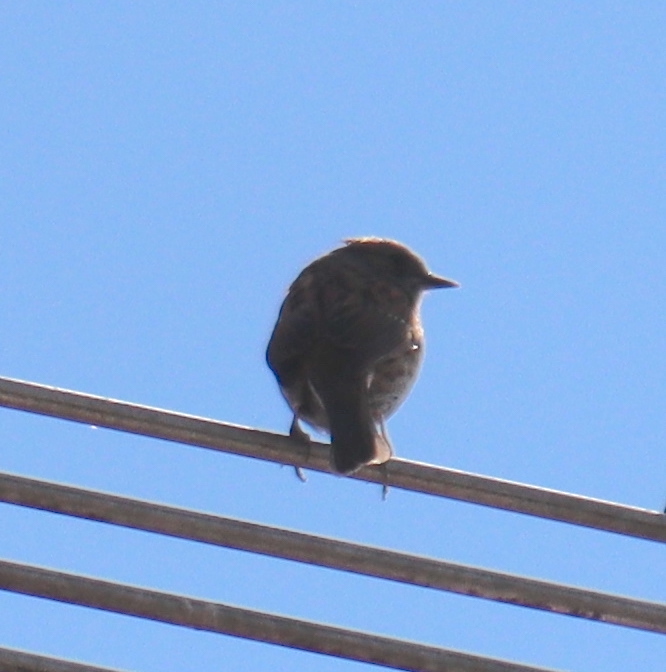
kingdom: Animalia
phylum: Chordata
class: Aves
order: Passeriformes
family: Prunellidae
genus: Prunella
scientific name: Prunella modularis
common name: Dunnock
